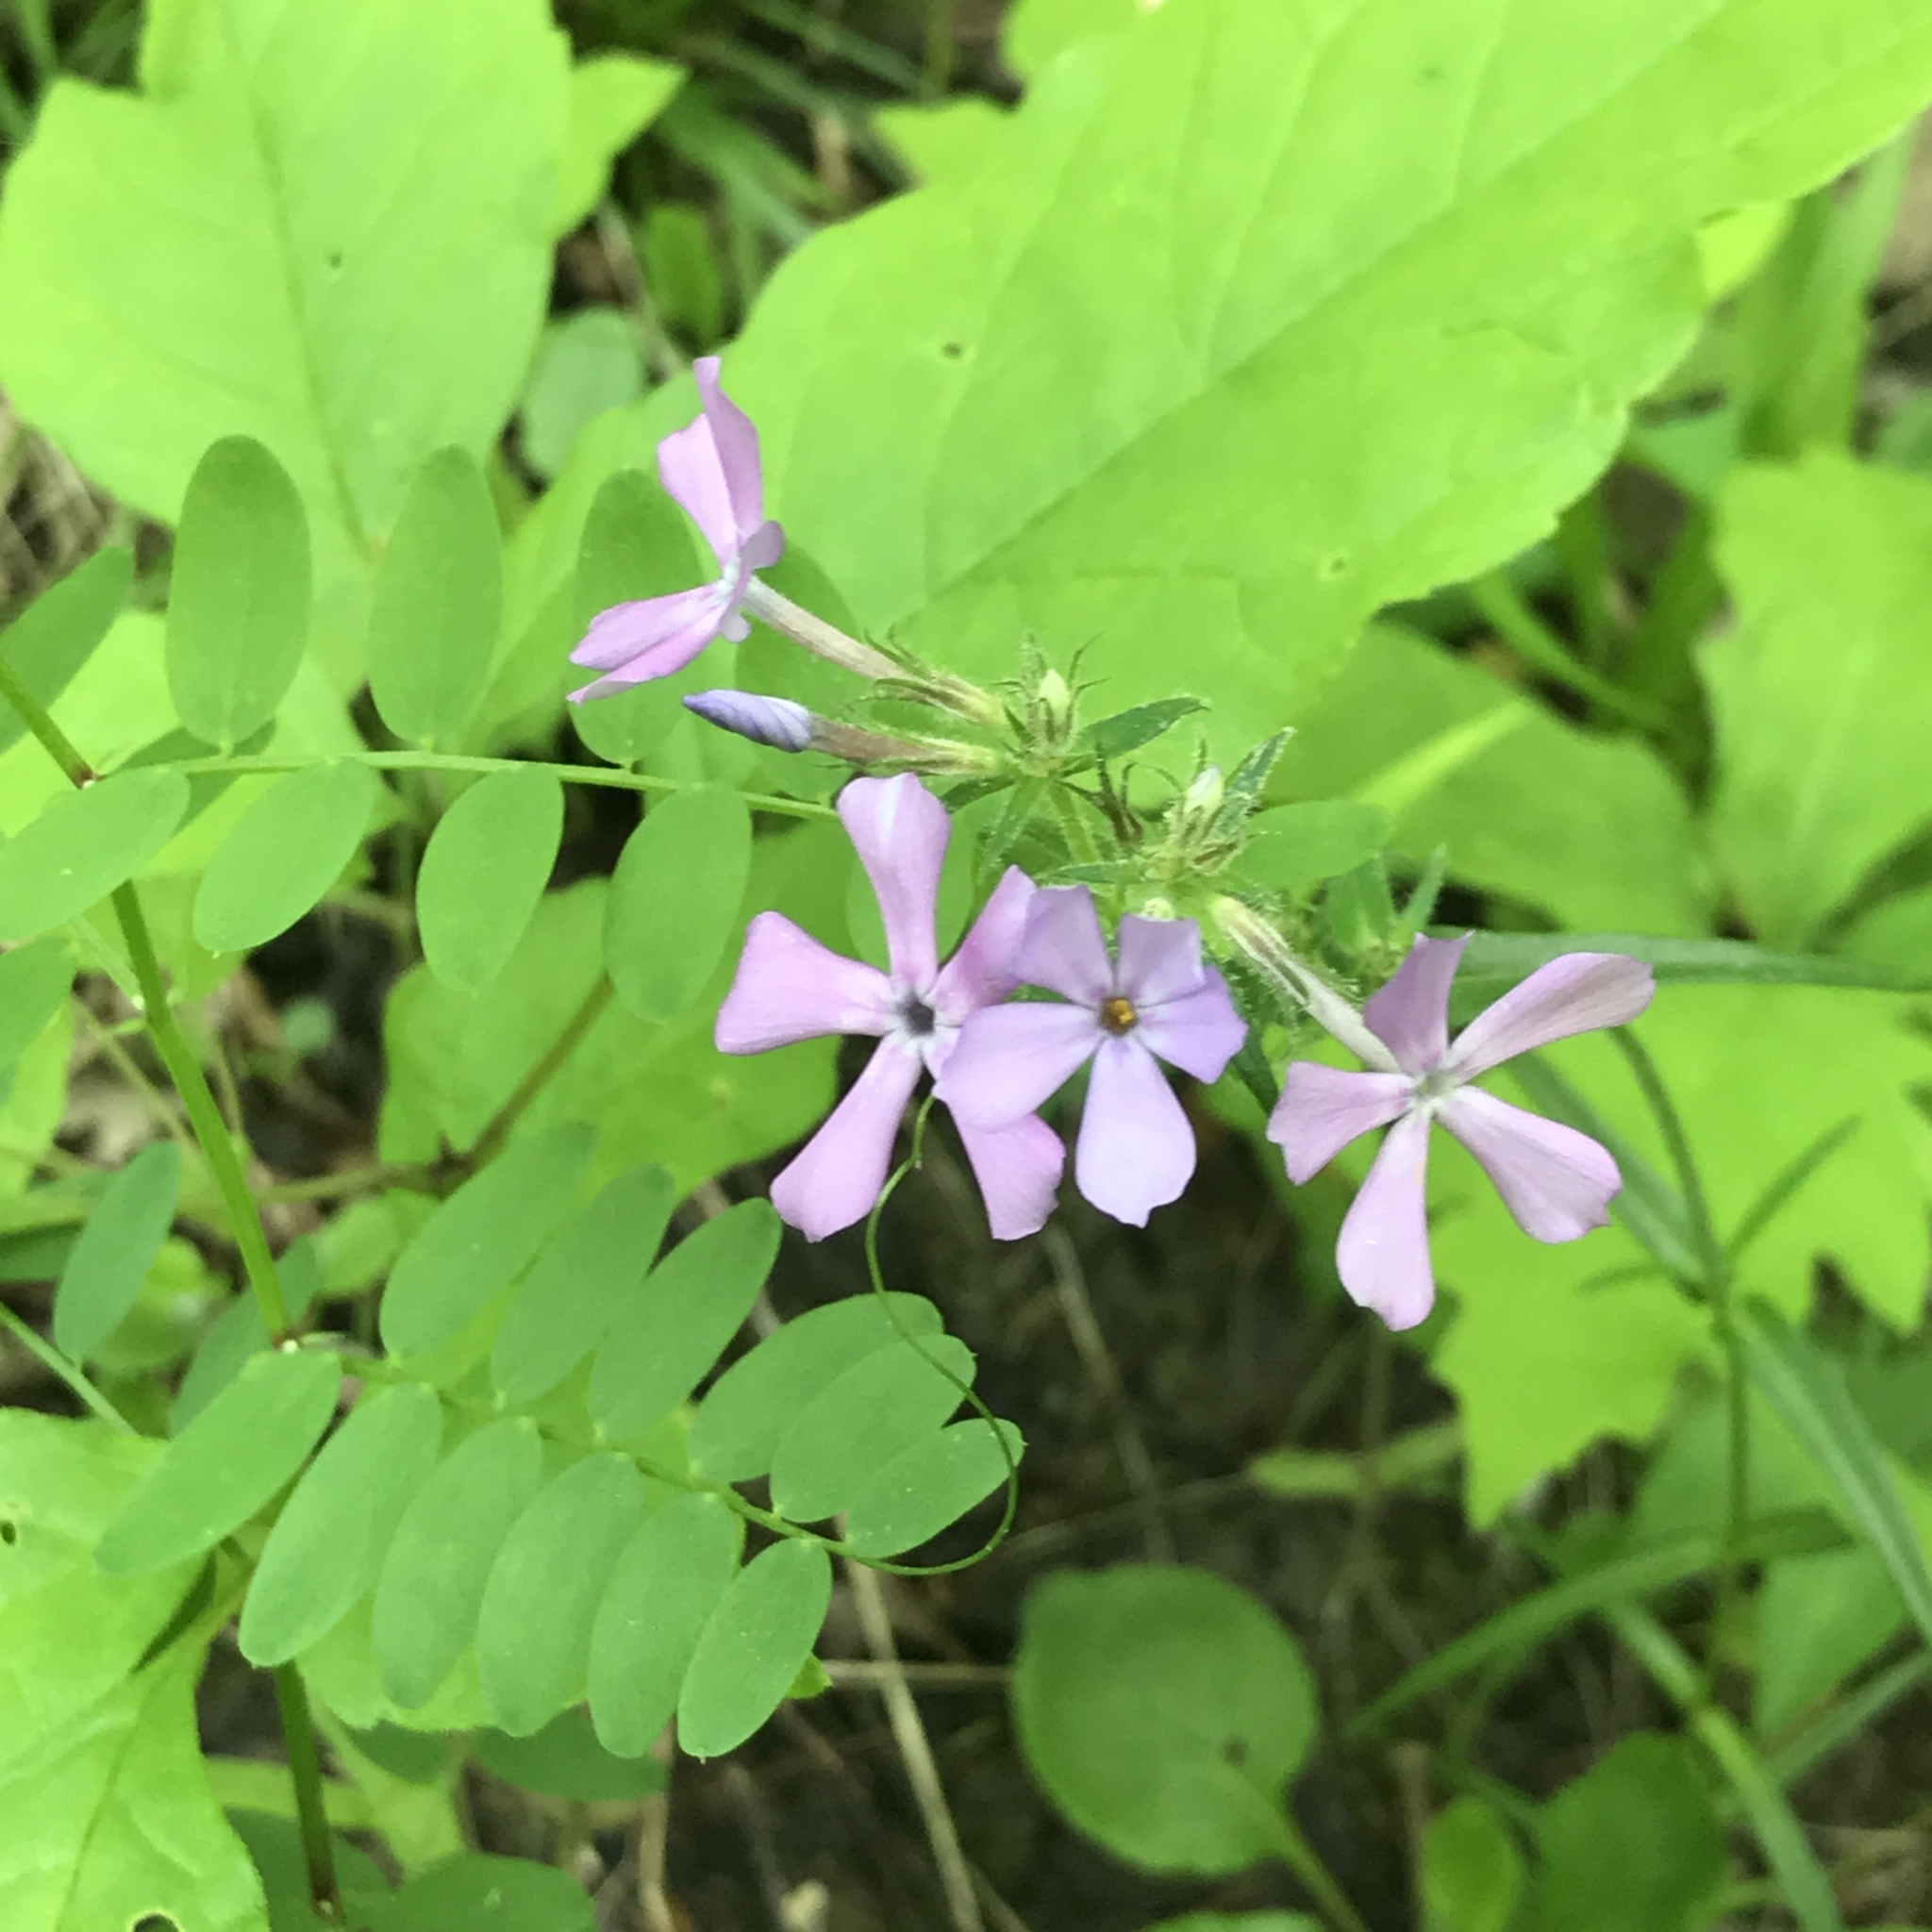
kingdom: Plantae
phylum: Tracheophyta
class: Magnoliopsida
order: Ericales
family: Polemoniaceae
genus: Phlox
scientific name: Phlox pilosa
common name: Prairie phlox
